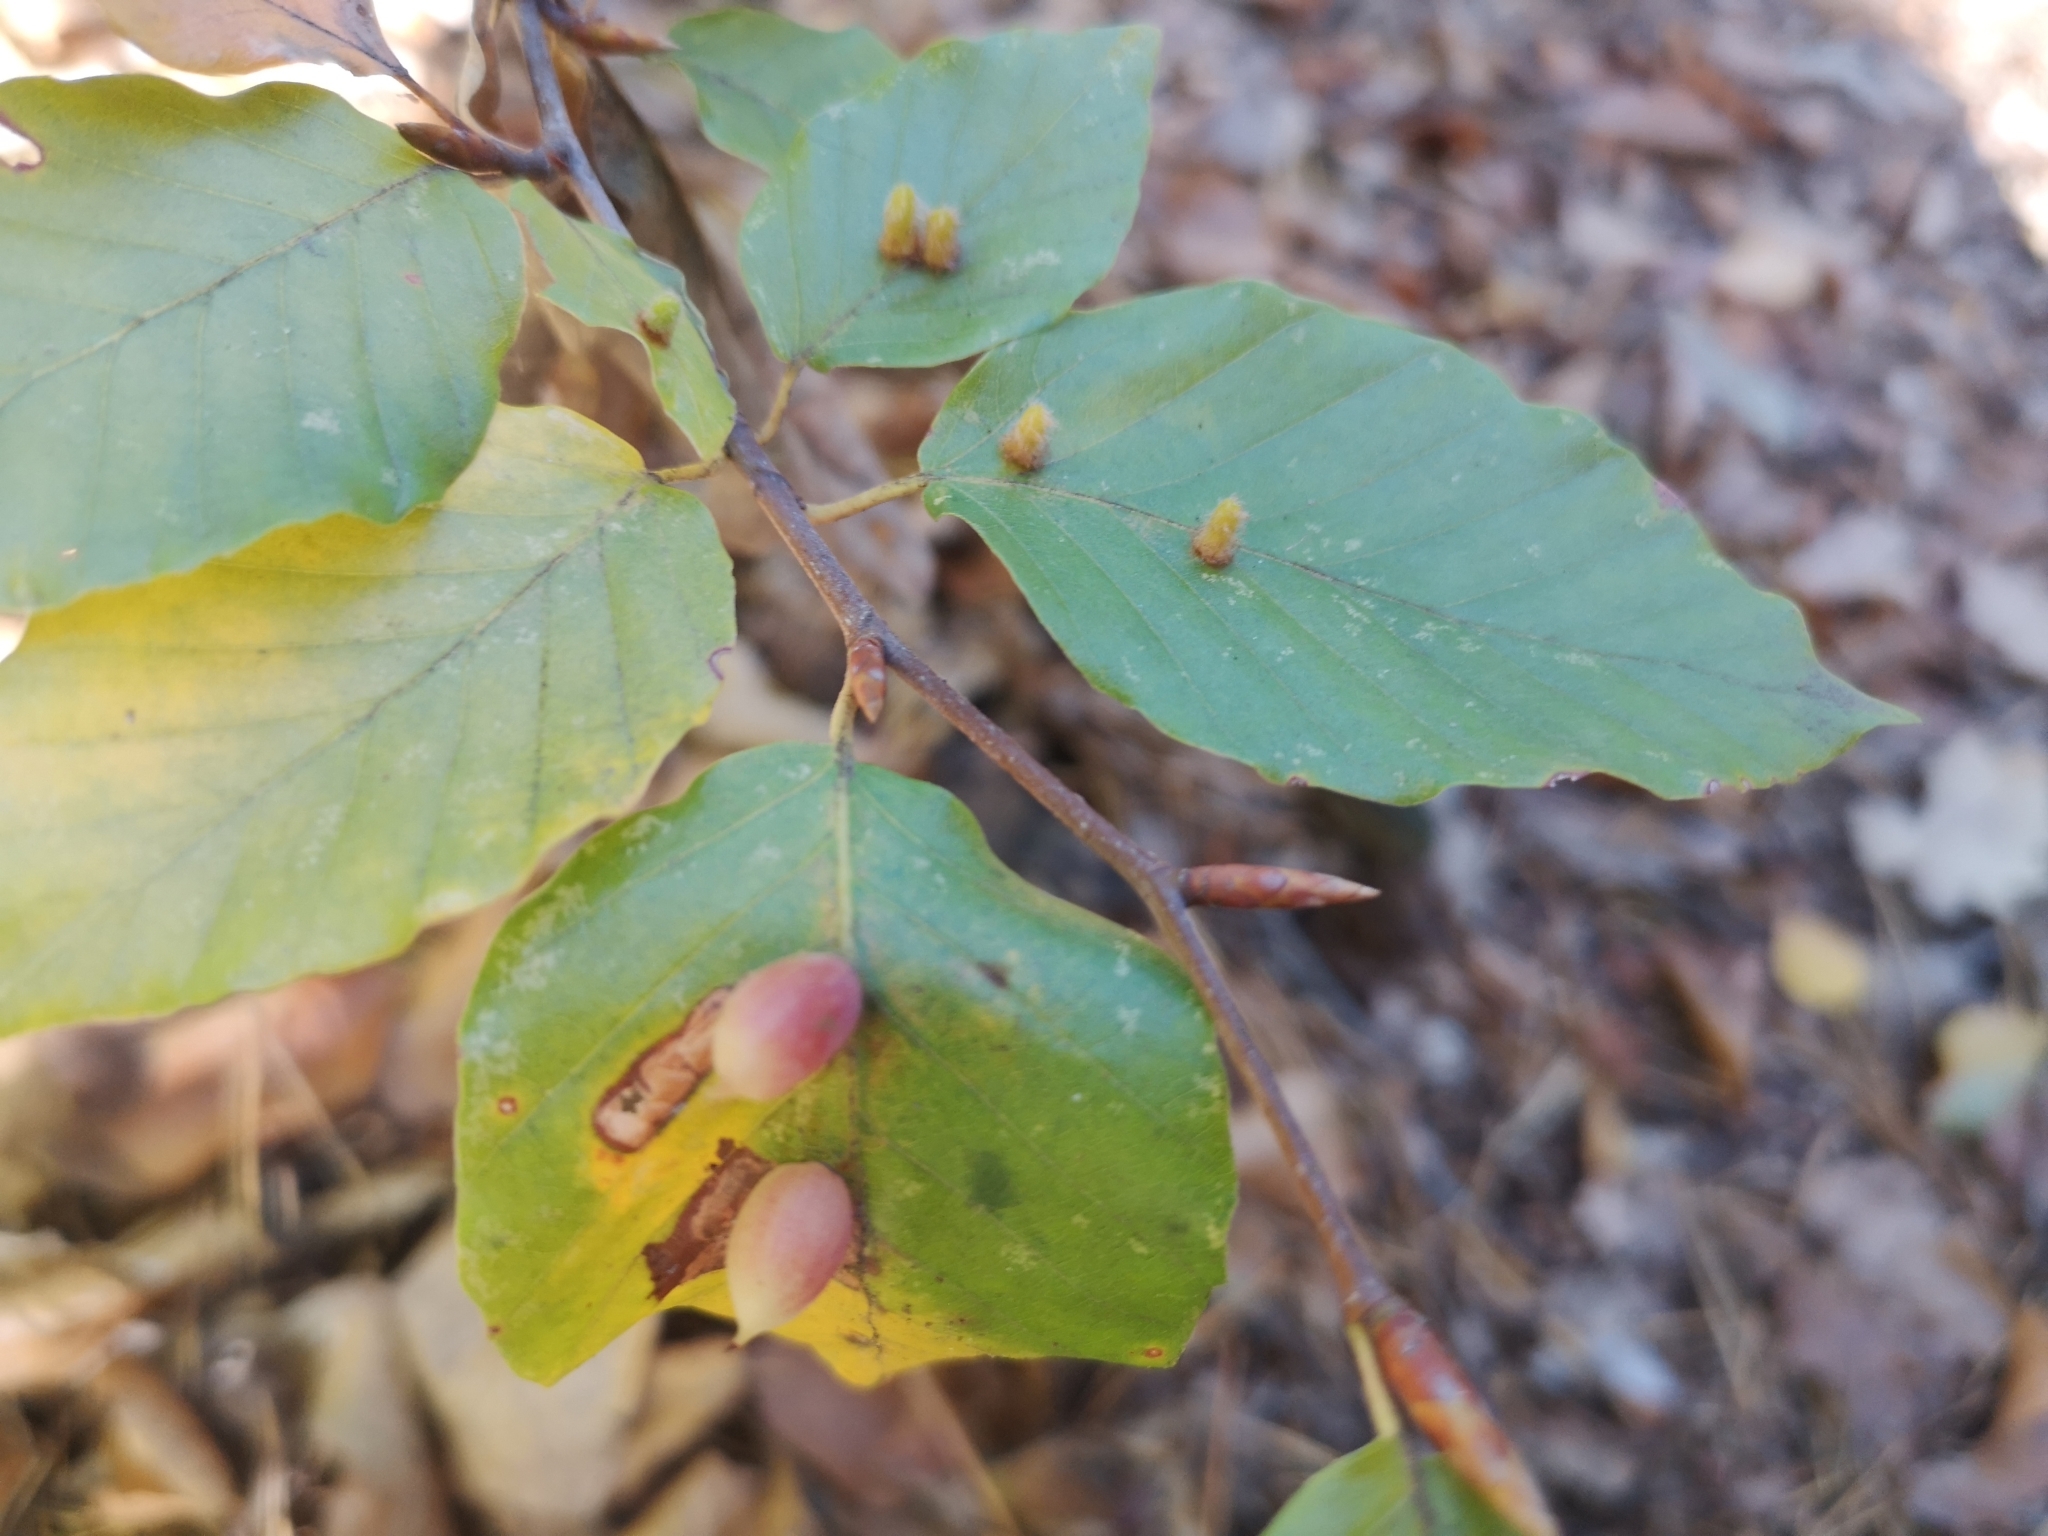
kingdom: Animalia
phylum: Arthropoda
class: Insecta
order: Diptera
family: Cecidomyiidae
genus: Mikiola
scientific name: Mikiola fagi
